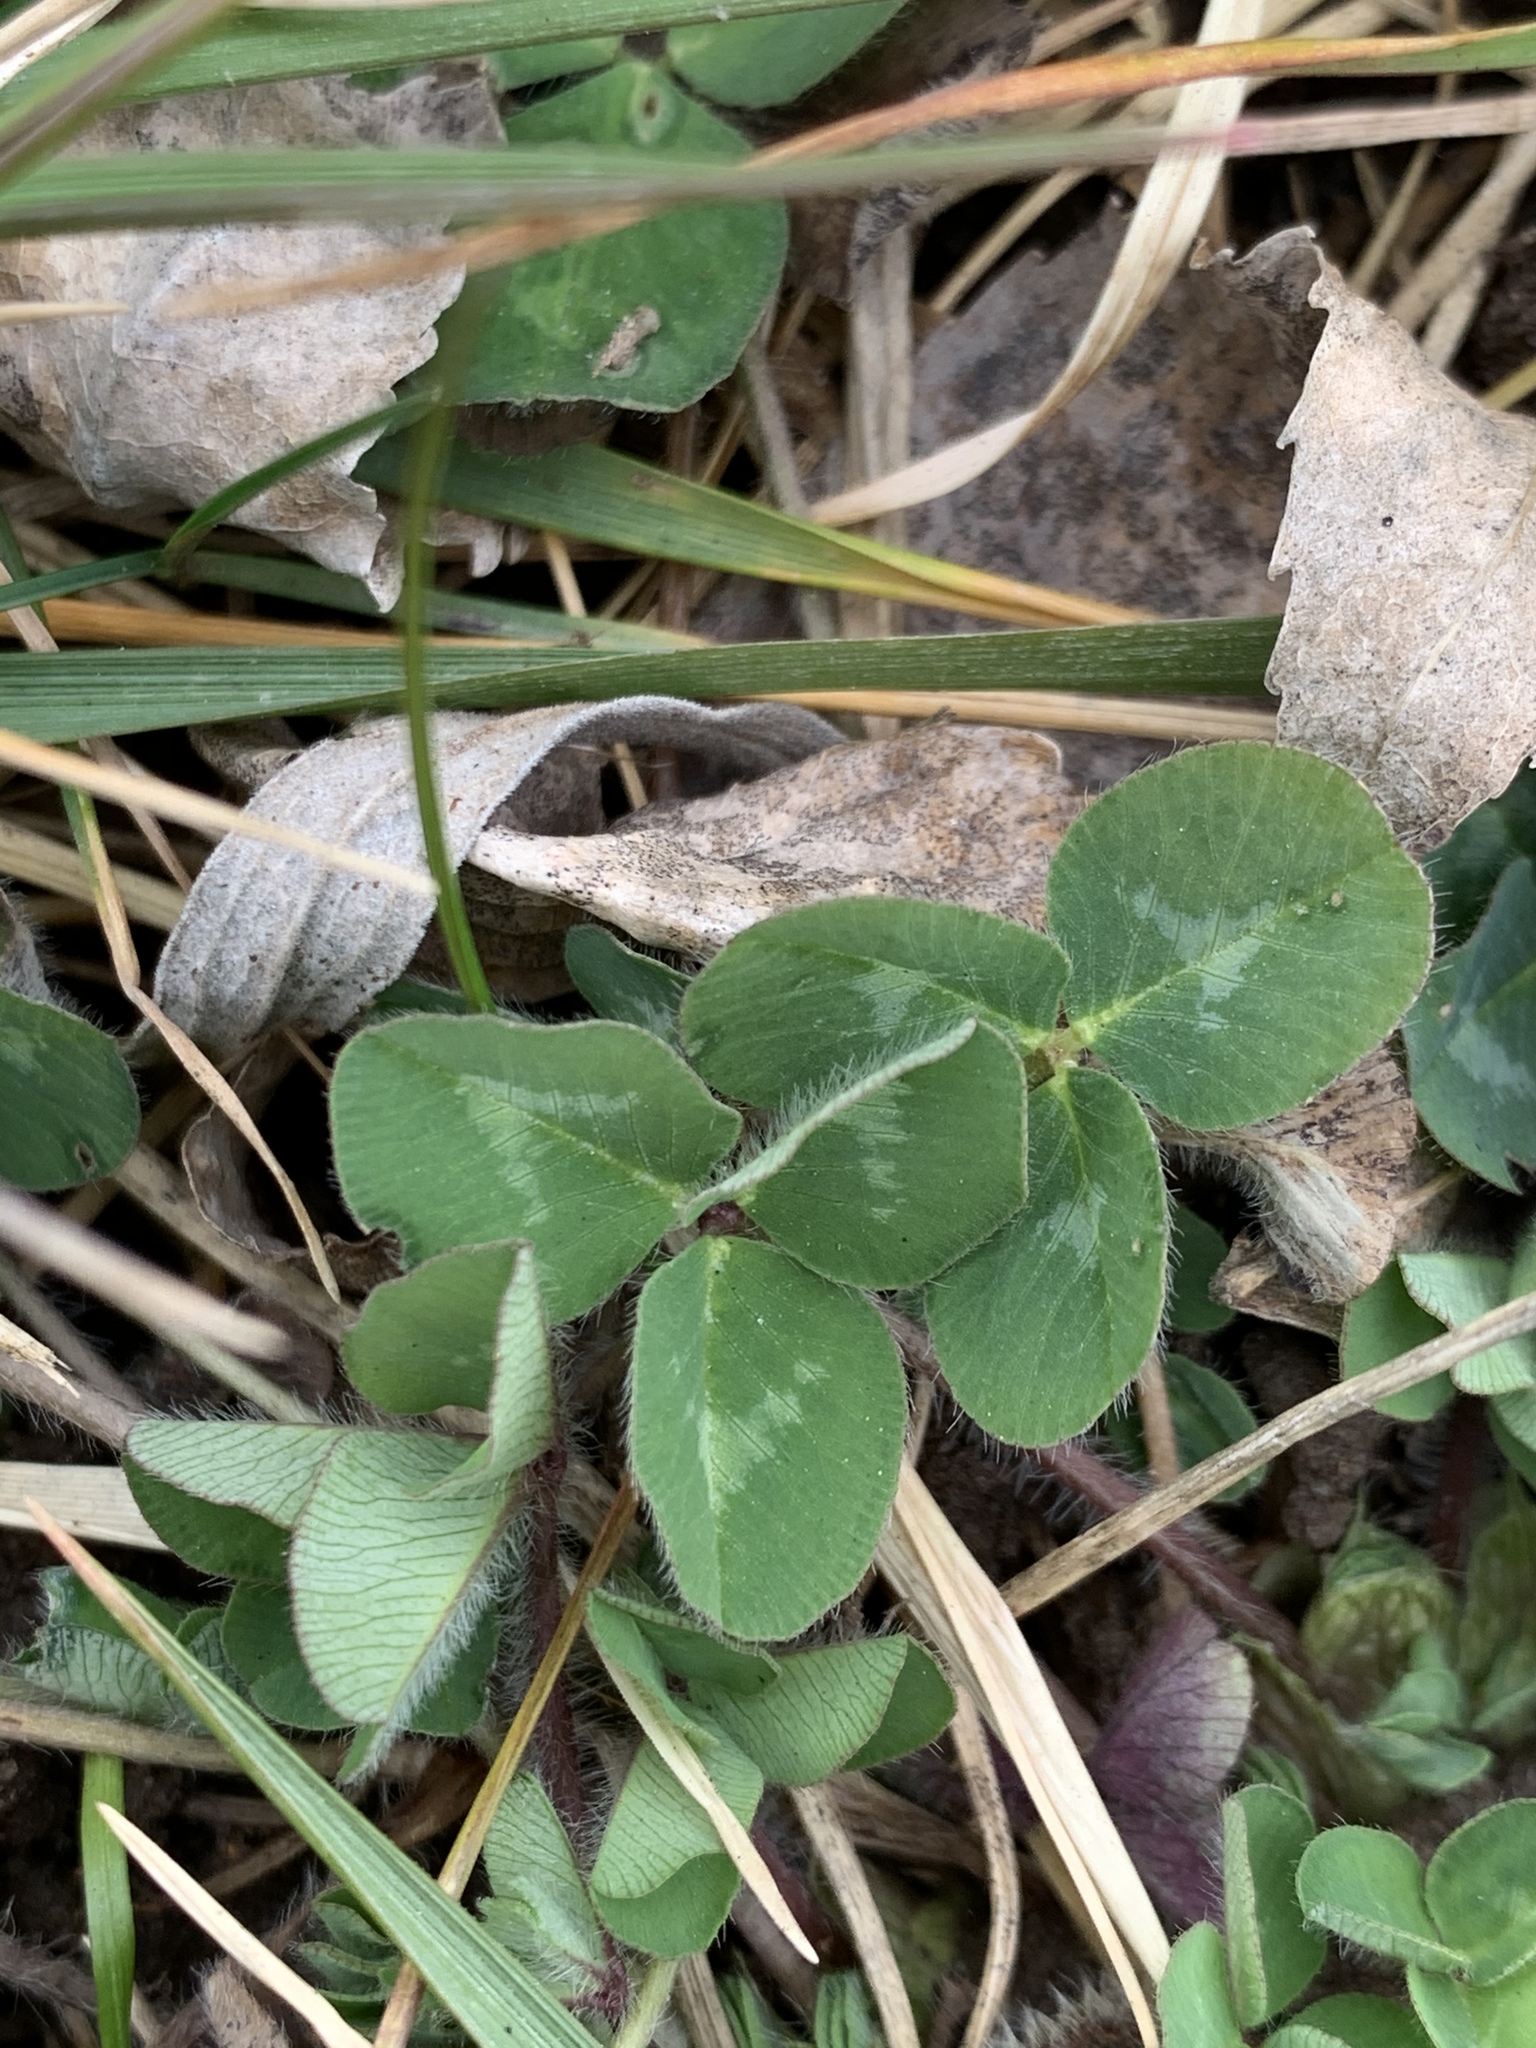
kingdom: Plantae
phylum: Tracheophyta
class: Magnoliopsida
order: Fabales
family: Fabaceae
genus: Trifolium
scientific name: Trifolium pratense
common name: Red clover
